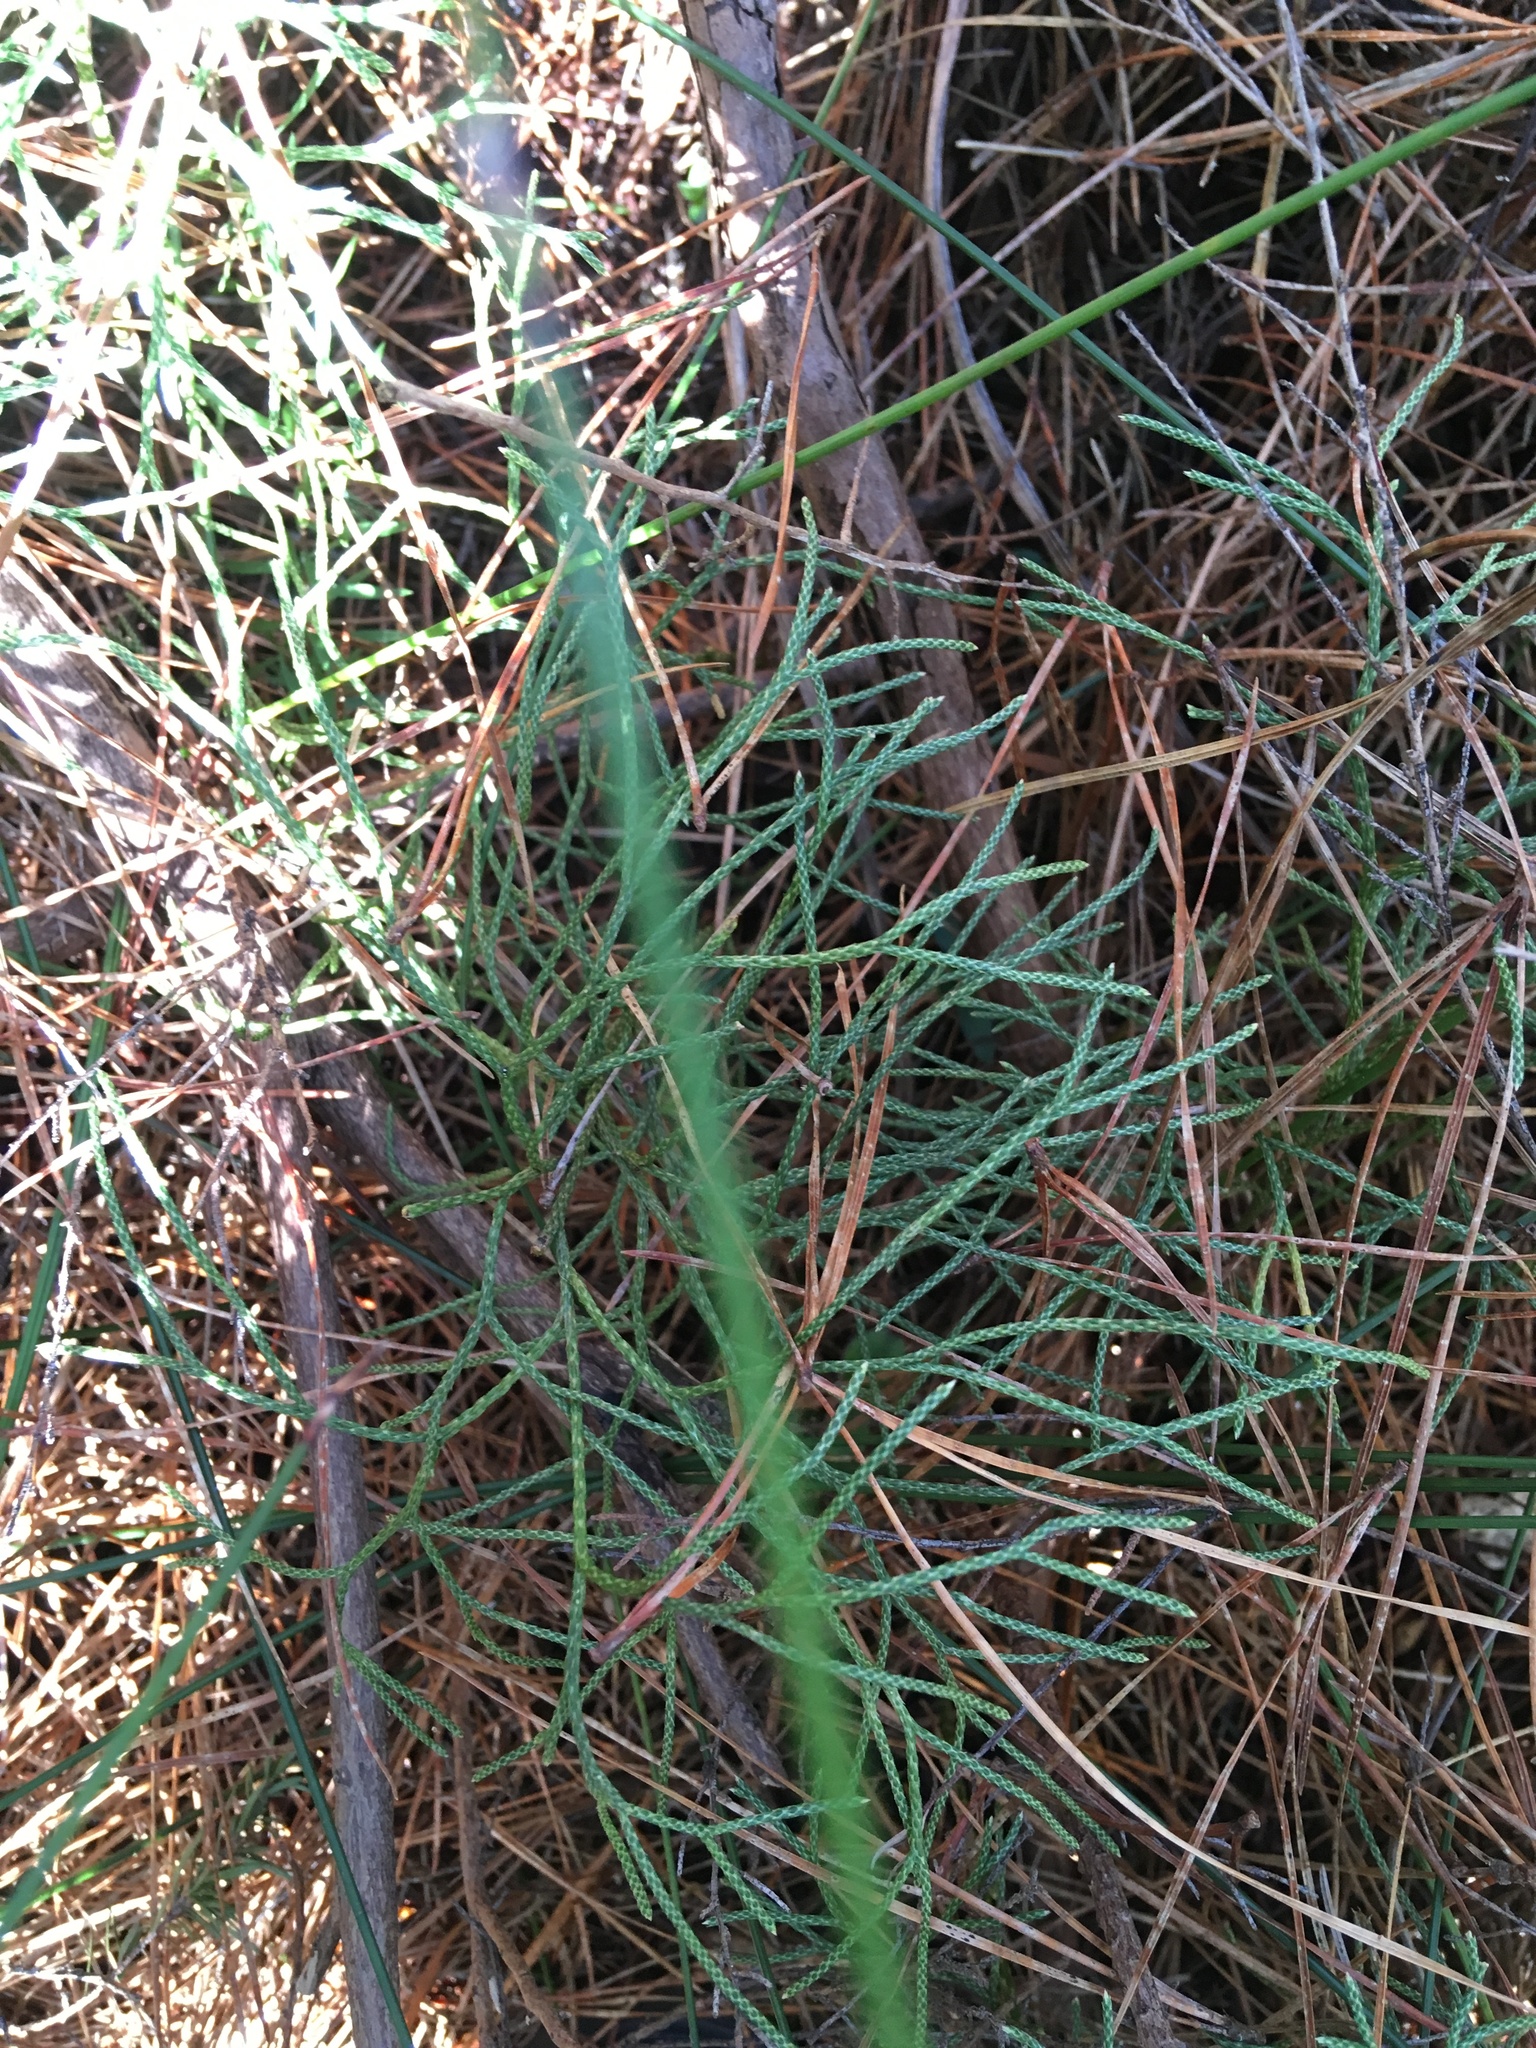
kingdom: Plantae
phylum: Tracheophyta
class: Lycopodiopsida
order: Lycopodiales
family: Lycopodiaceae
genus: Pseudolycopodium
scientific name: Pseudolycopodium densum
